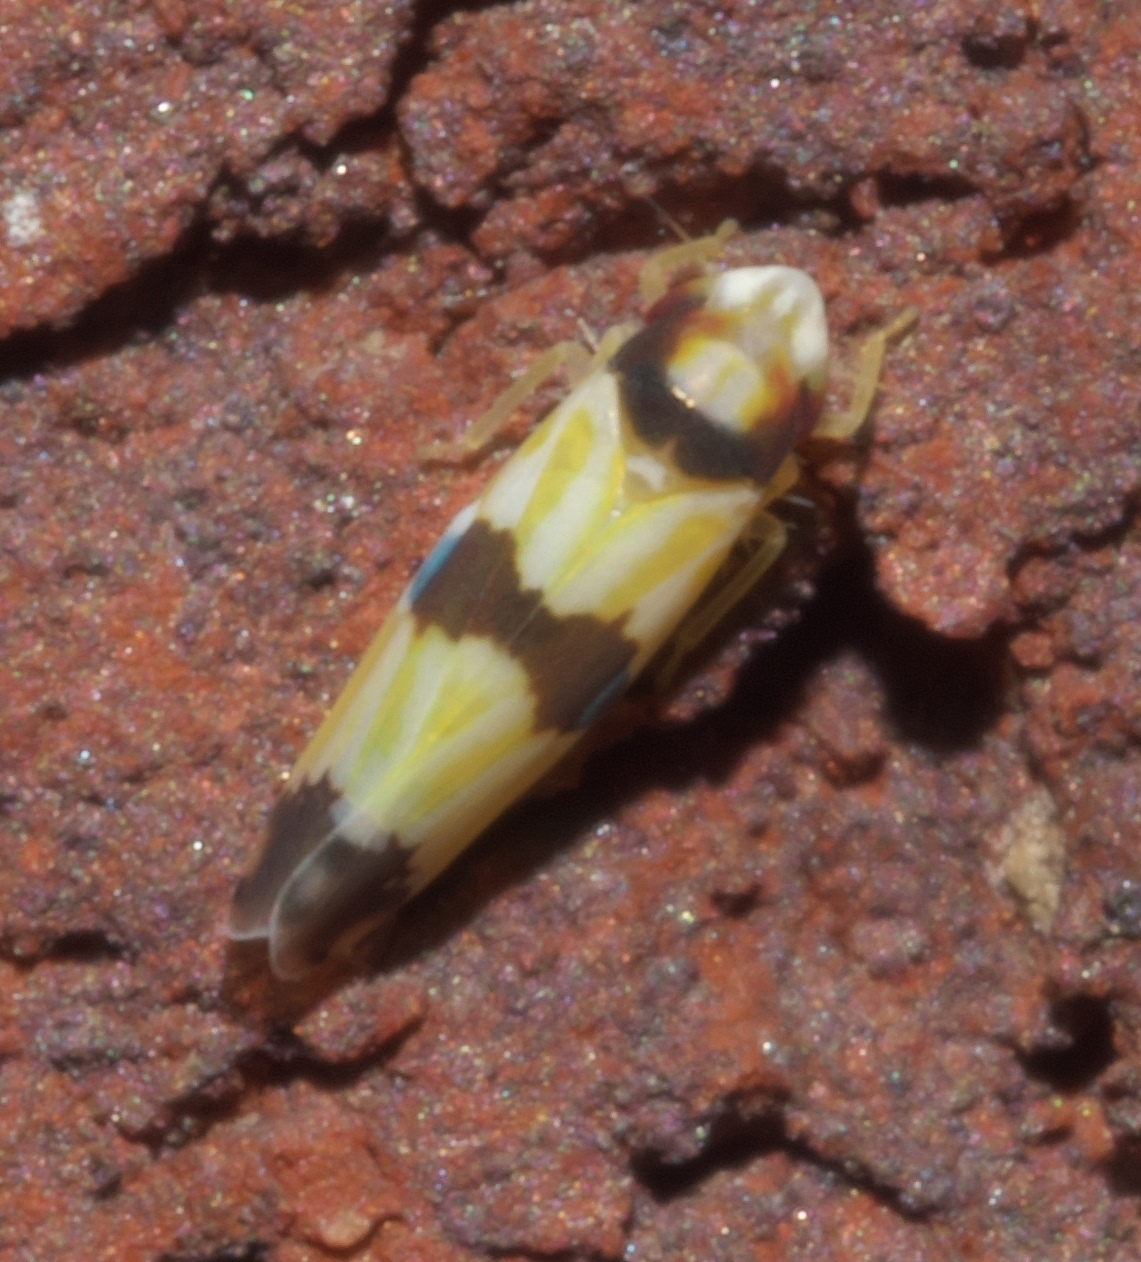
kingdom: Animalia
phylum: Arthropoda
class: Insecta
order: Hemiptera
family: Cicadellidae
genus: Erythroneura
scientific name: Erythroneura calycula
